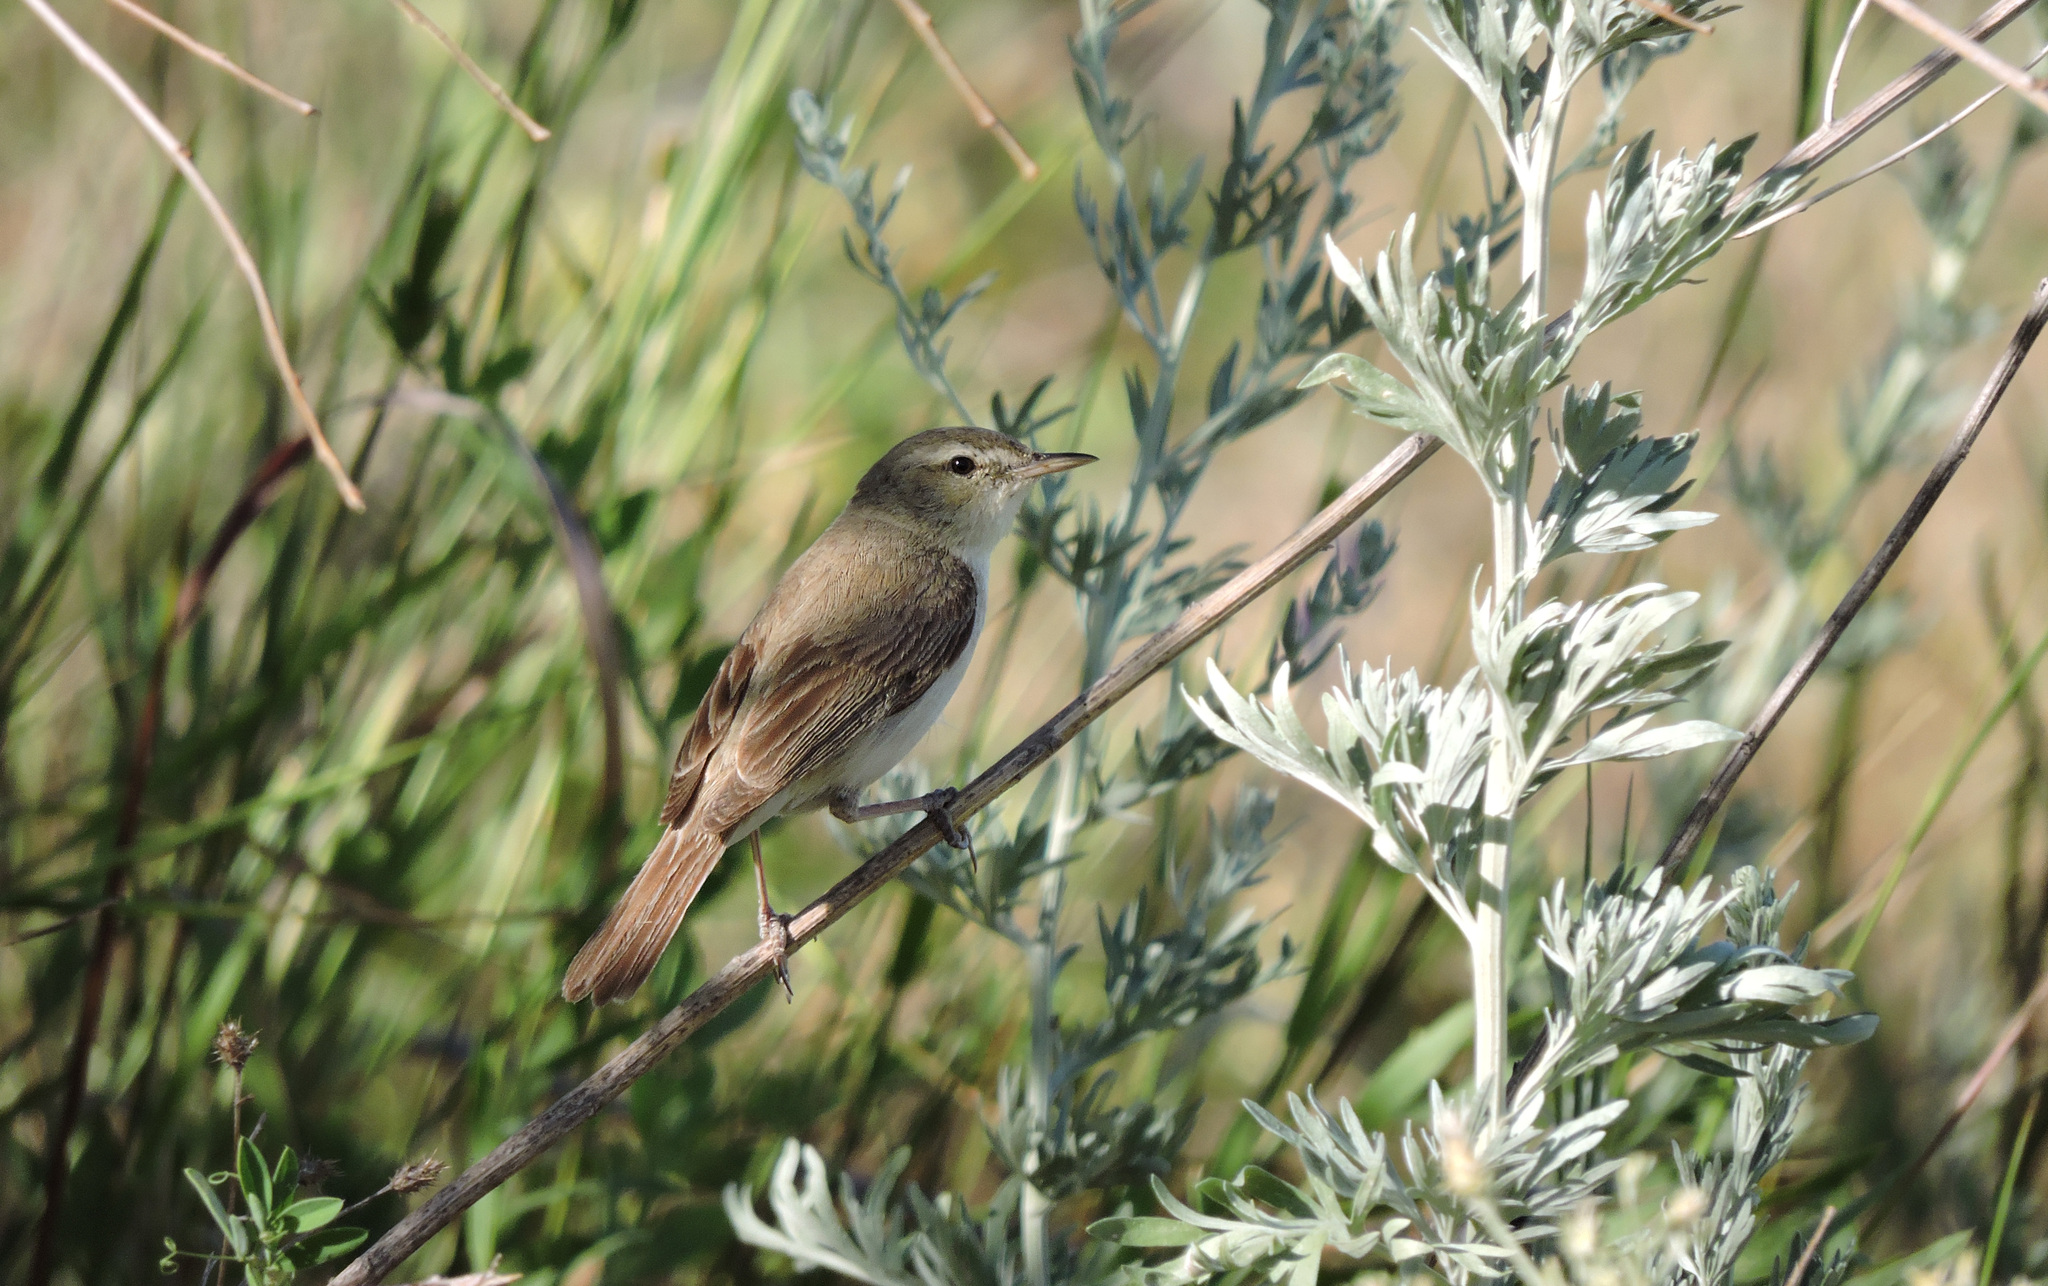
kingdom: Animalia
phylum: Chordata
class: Aves
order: Passeriformes
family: Acrocephalidae
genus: Acrocephalus
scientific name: Acrocephalus dumetorum
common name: Blyth's reed warbler
